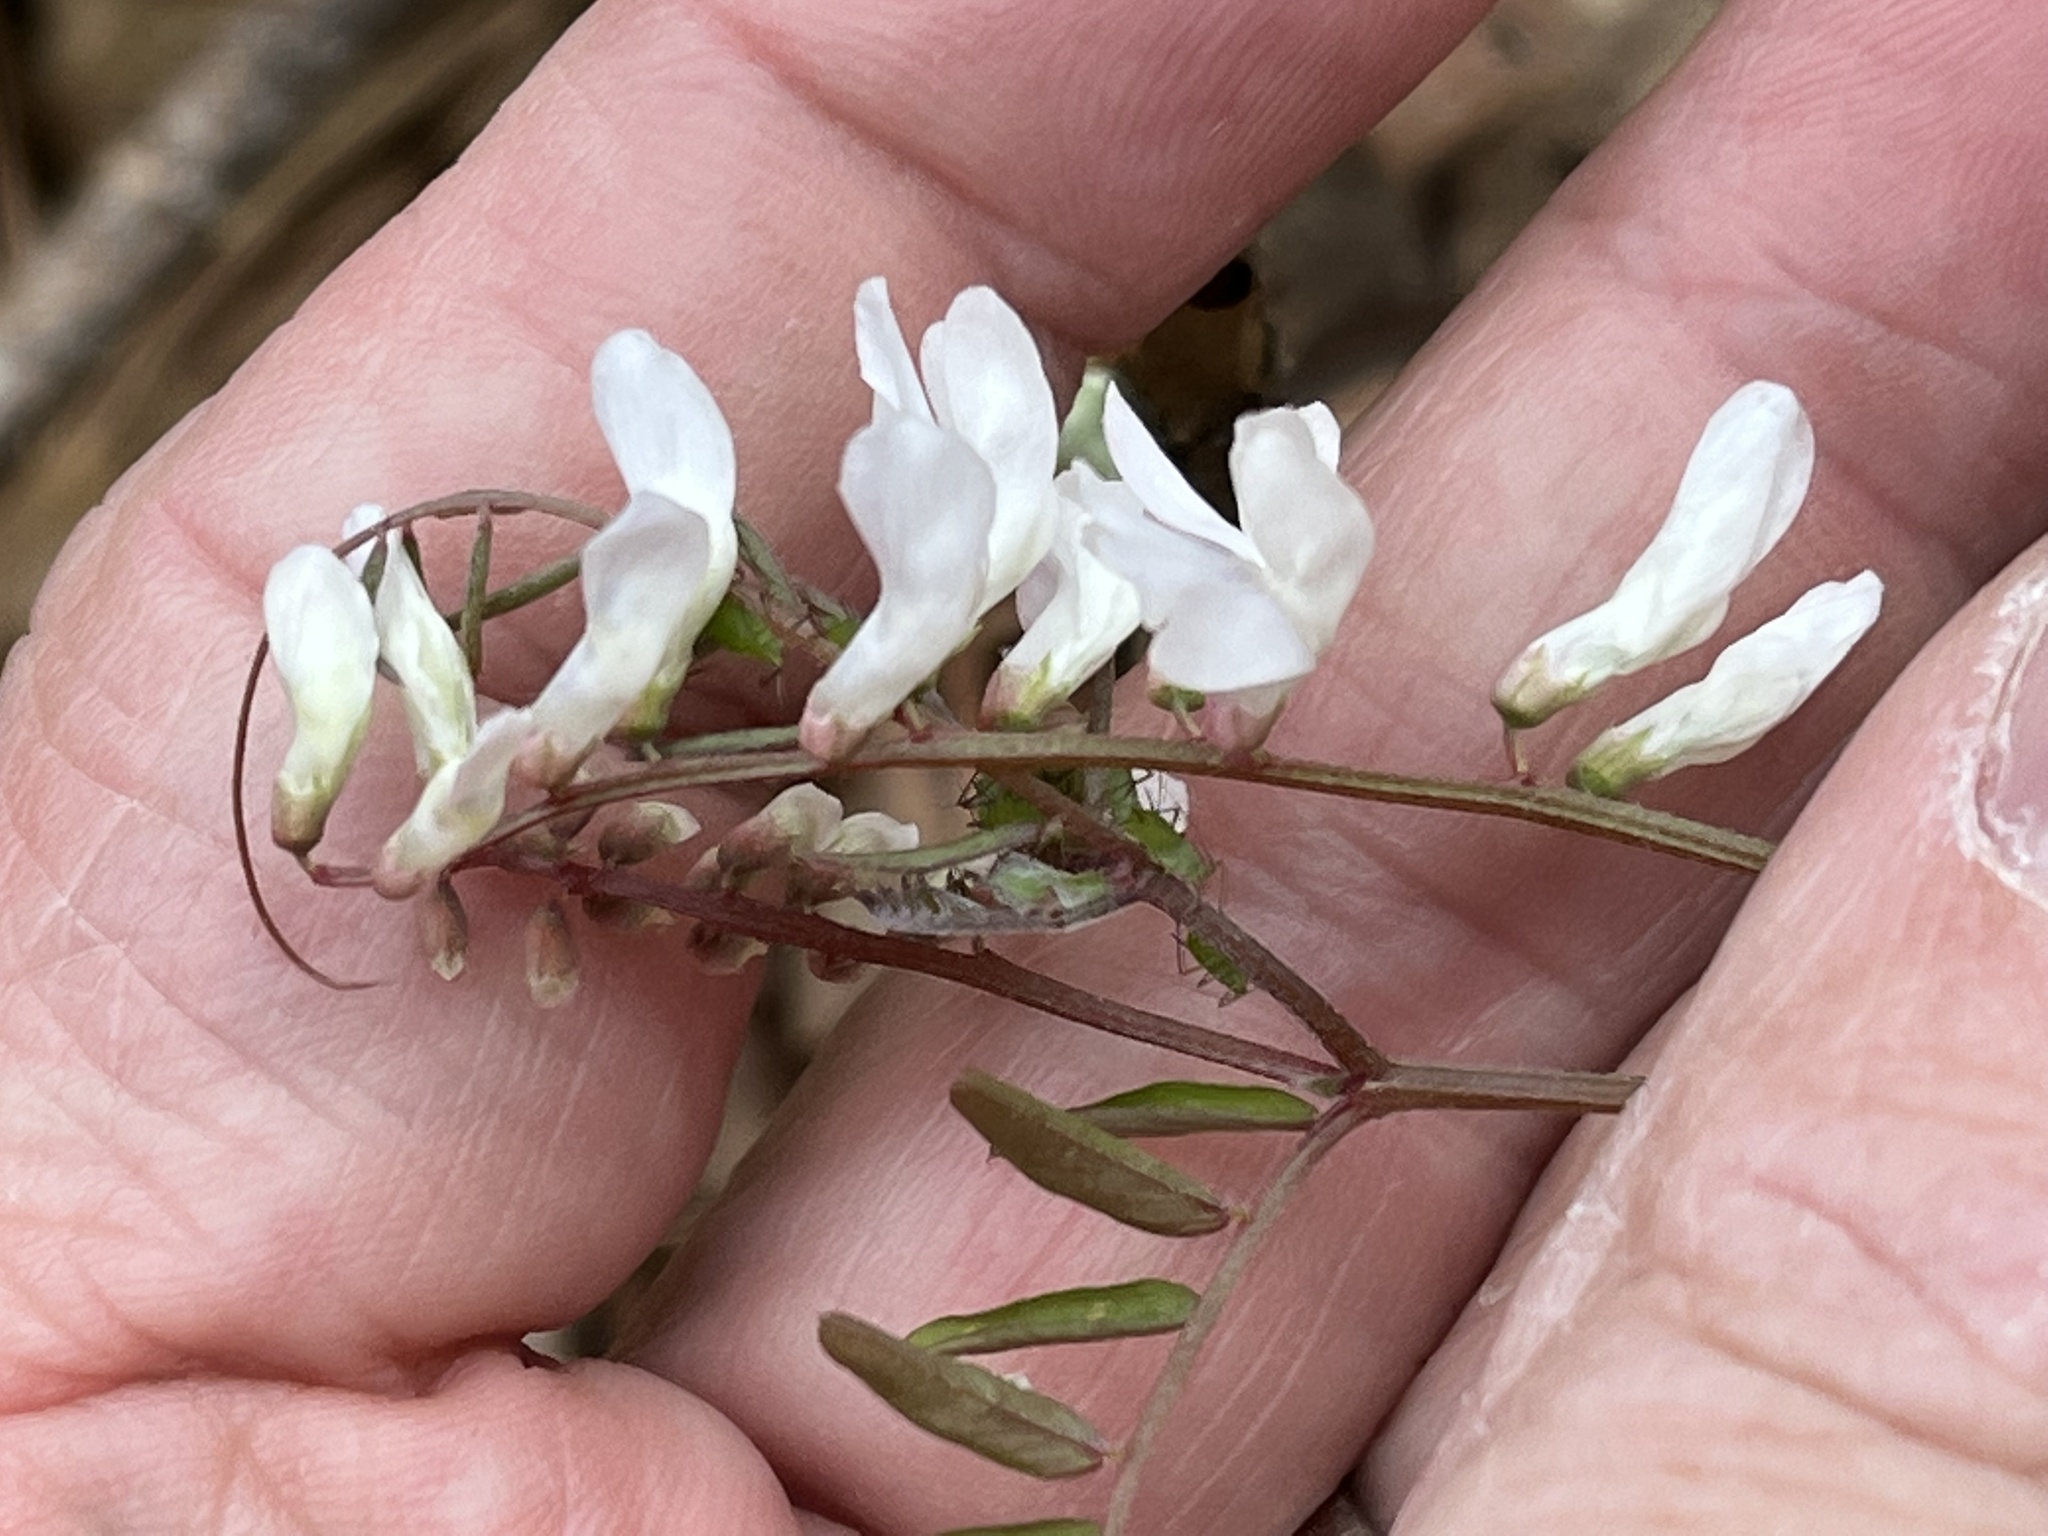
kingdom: Plantae
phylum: Tracheophyta
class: Magnoliopsida
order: Fabales
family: Fabaceae
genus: Vicia
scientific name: Vicia caroliniana
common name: Carolina vetch
